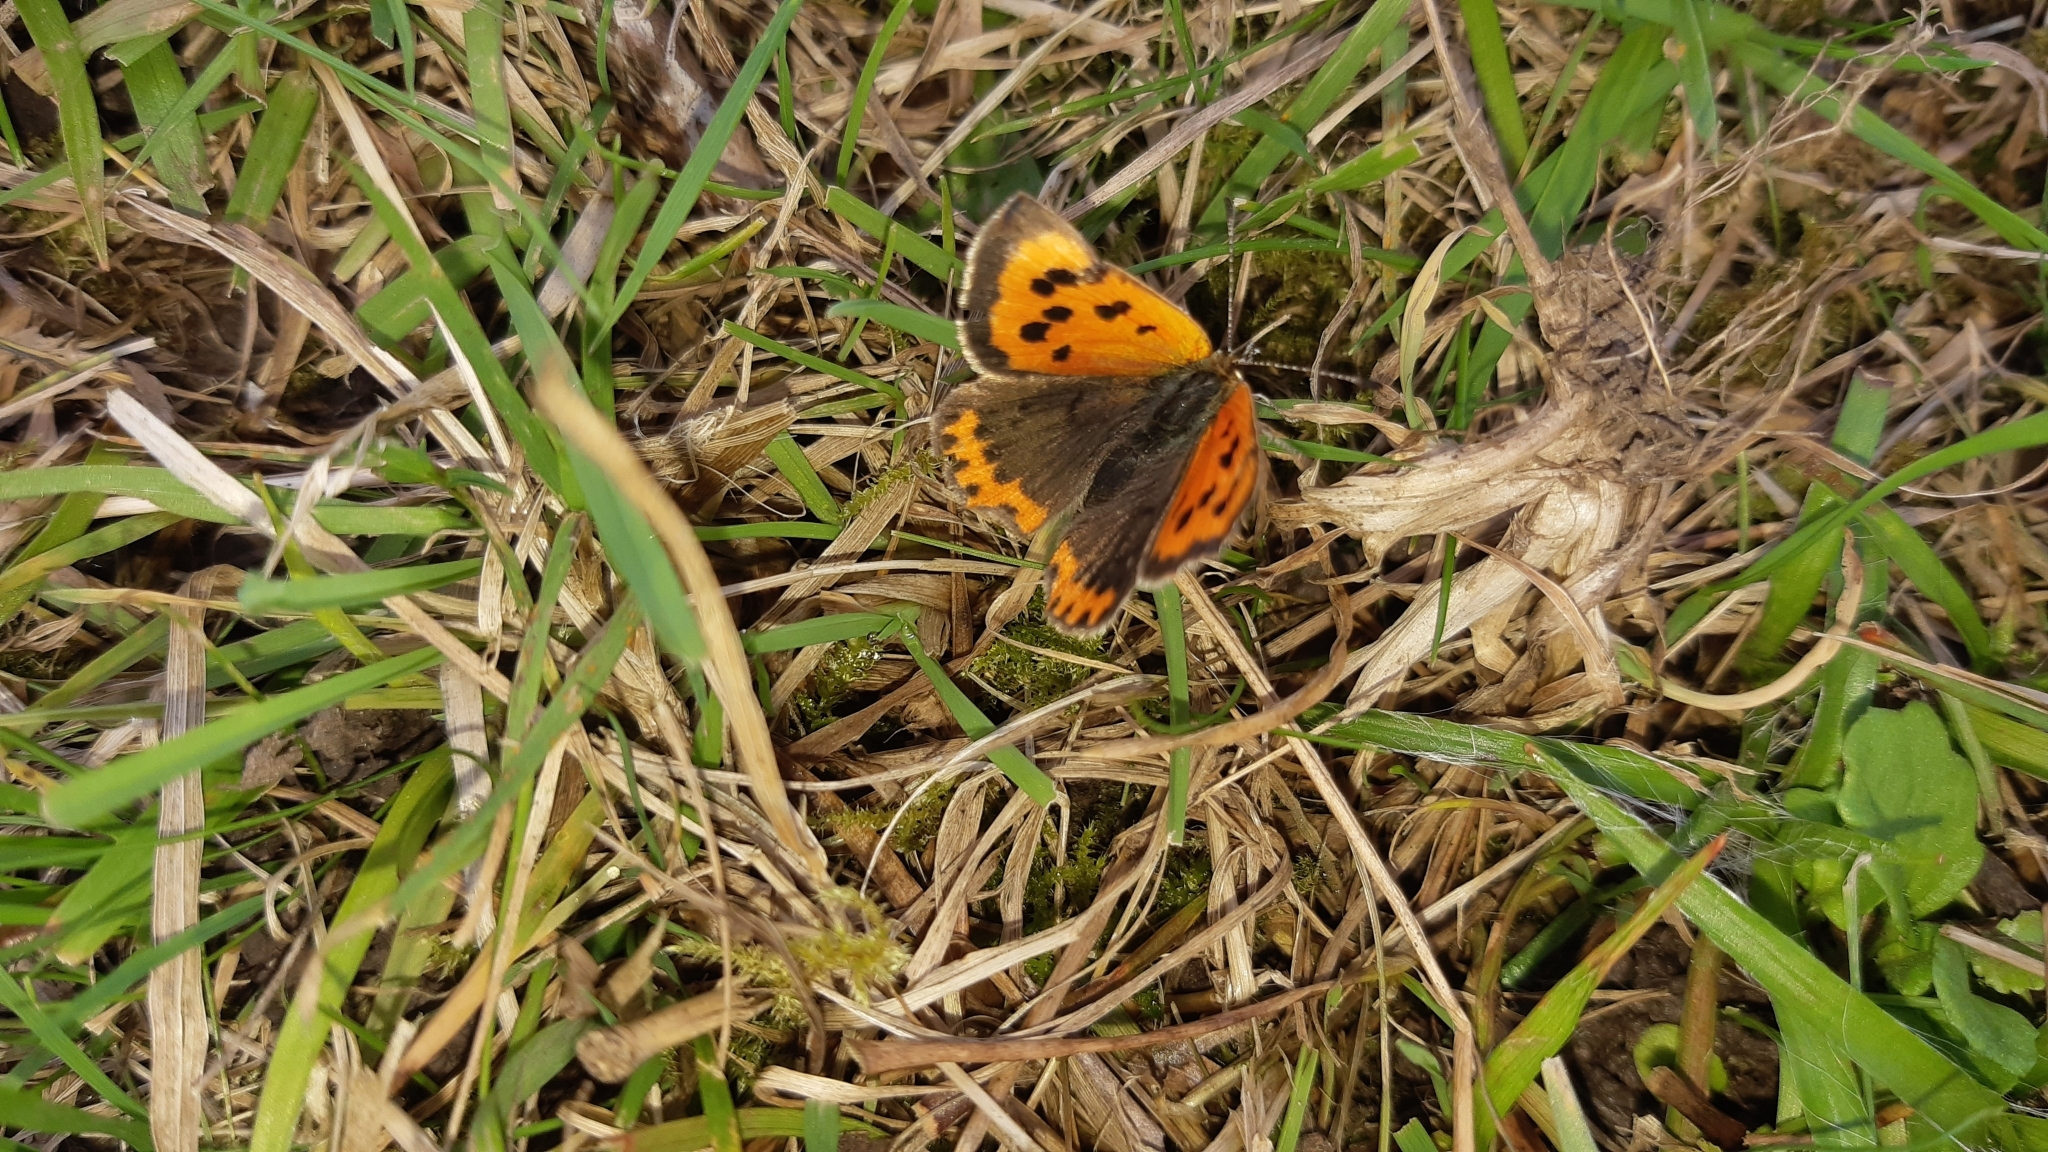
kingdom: Animalia
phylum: Arthropoda
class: Insecta
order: Lepidoptera
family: Lycaenidae
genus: Lycaena
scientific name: Lycaena phlaeas
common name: Small copper
